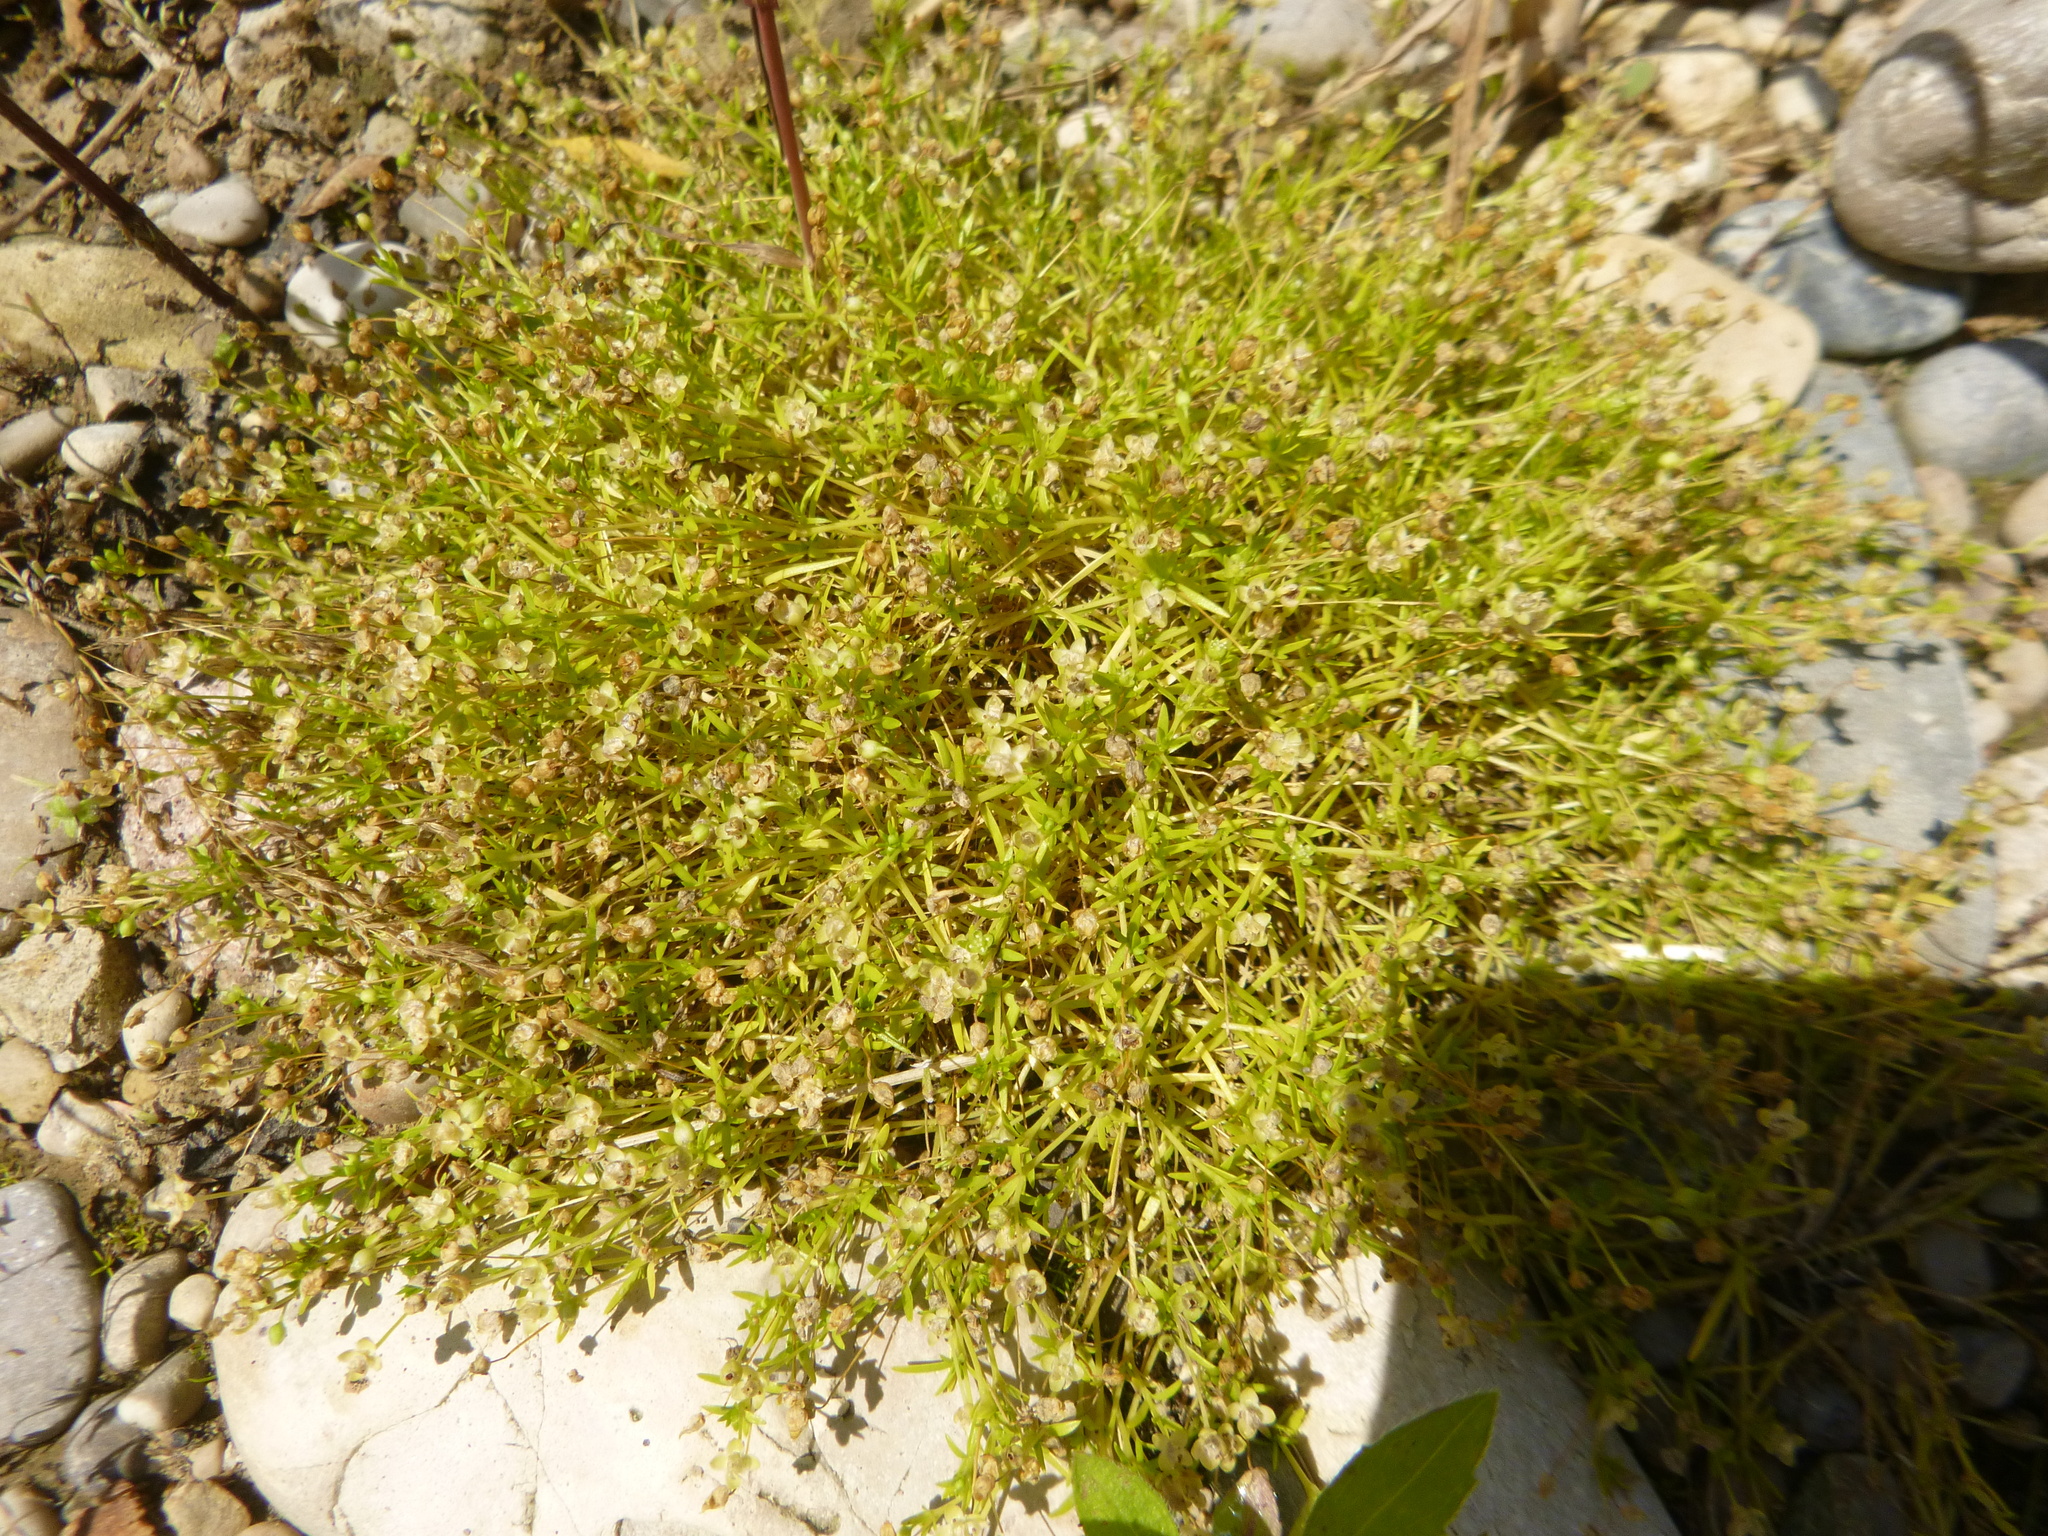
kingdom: Plantae
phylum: Tracheophyta
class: Magnoliopsida
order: Caryophyllales
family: Caryophyllaceae
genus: Sagina
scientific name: Sagina procumbens
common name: Procumbent pearlwort
